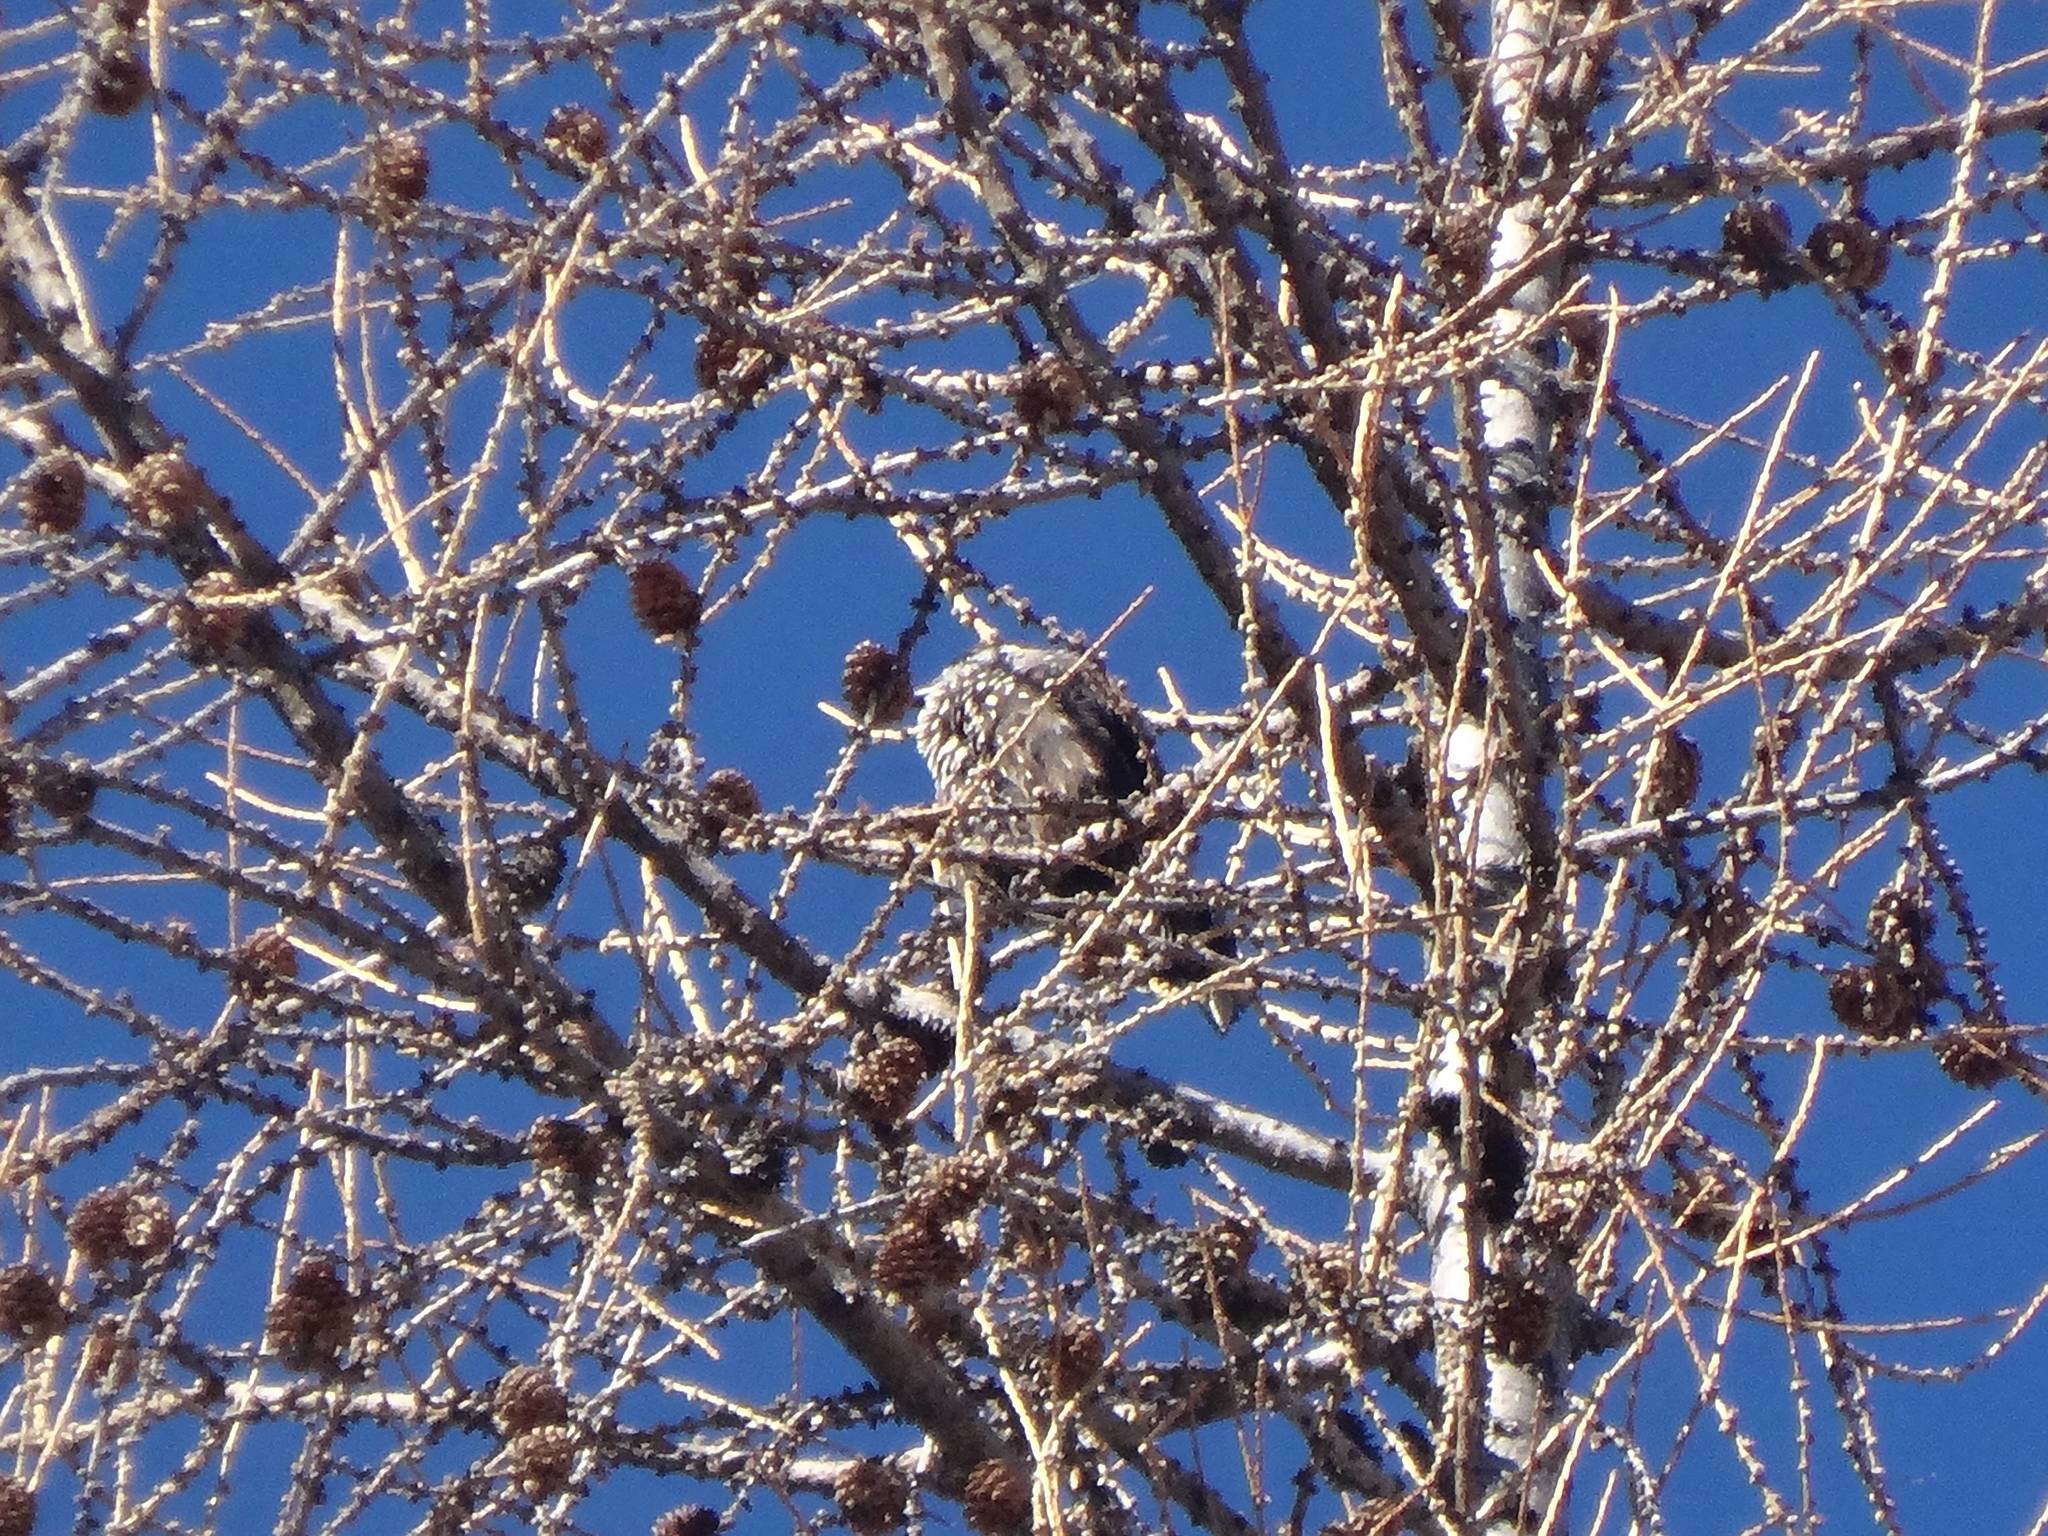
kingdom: Animalia
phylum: Chordata
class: Aves
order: Passeriformes
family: Corvidae
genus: Nucifraga
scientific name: Nucifraga caryocatactes
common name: Spotted nutcracker
